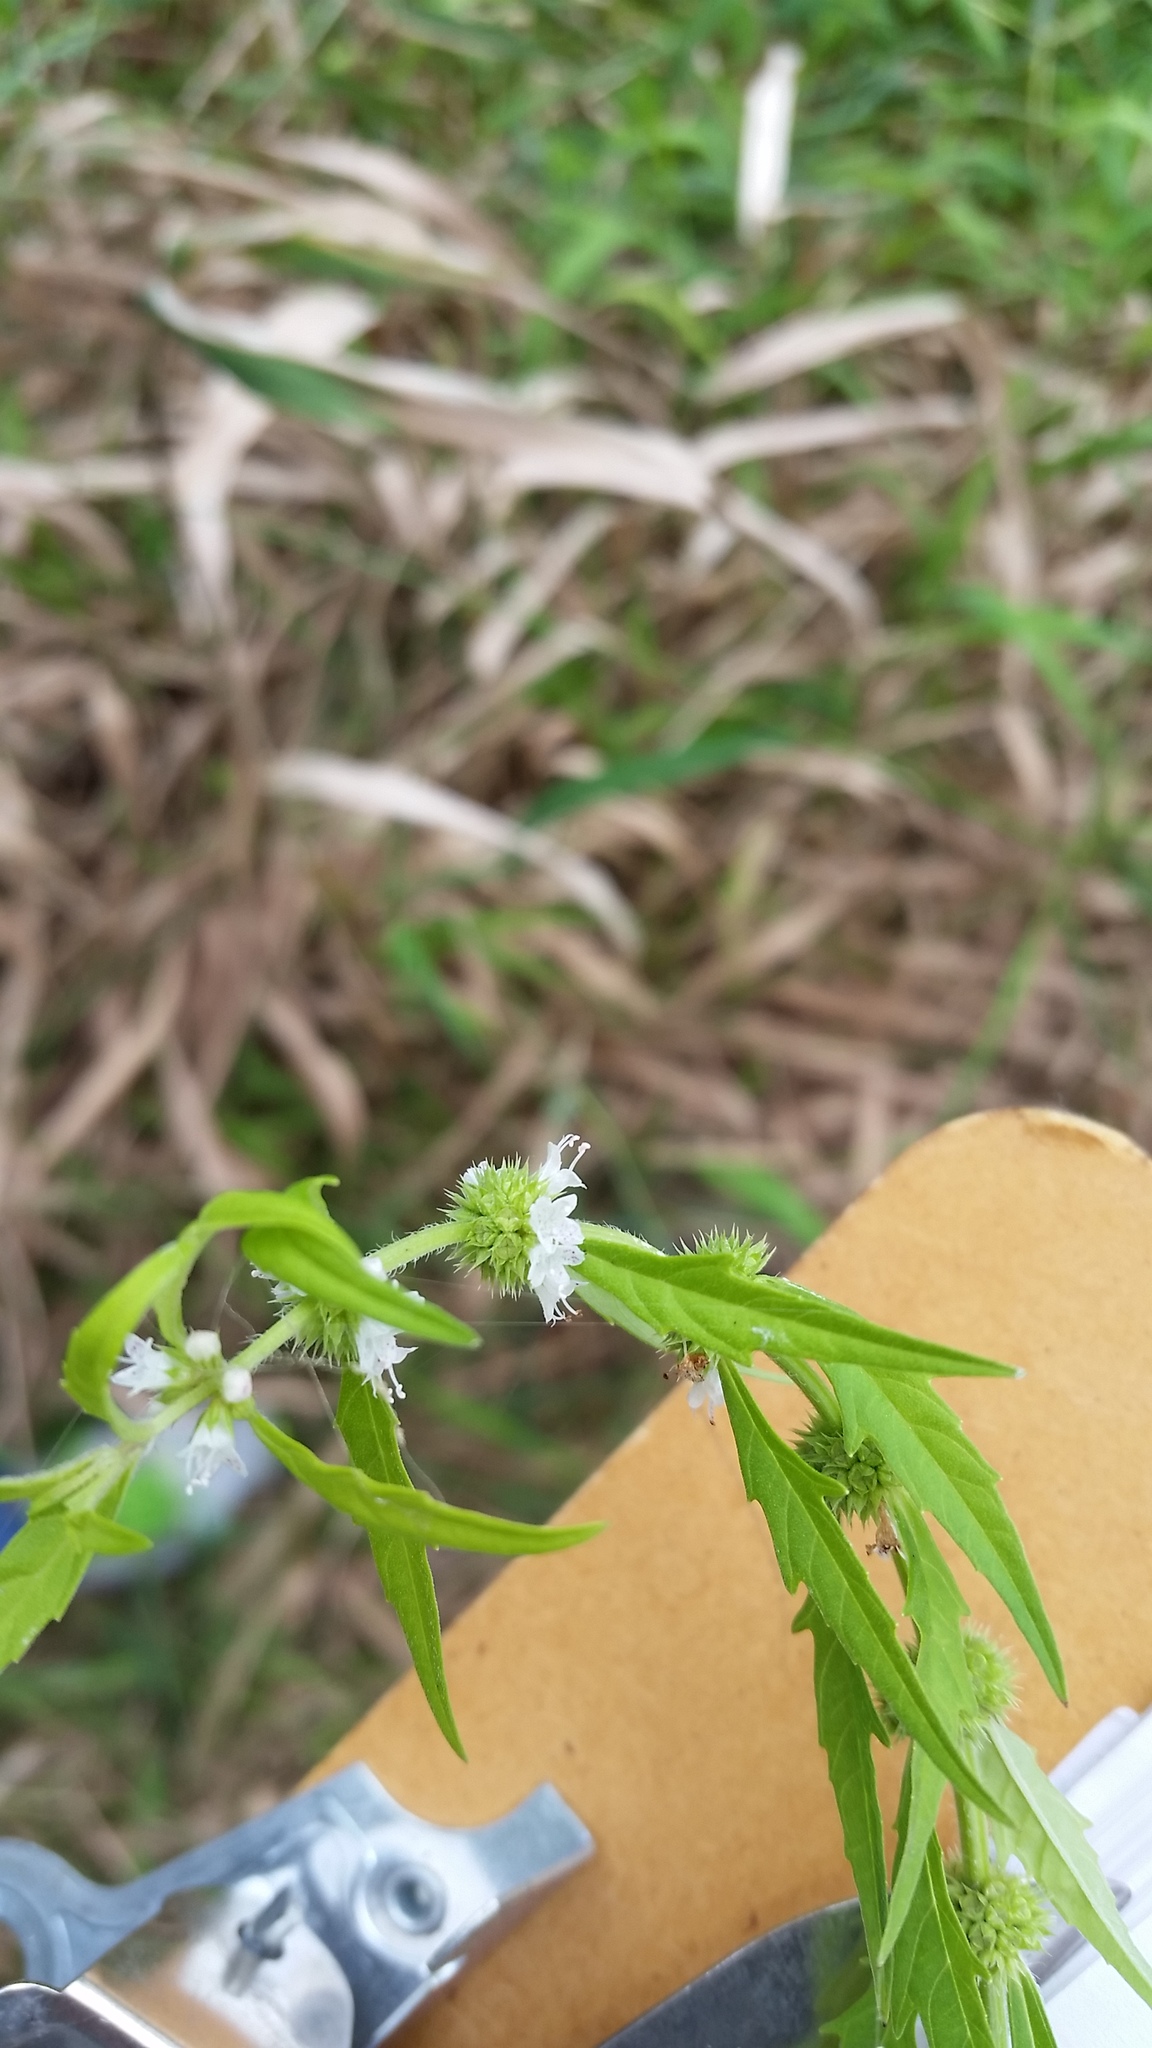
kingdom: Plantae
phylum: Tracheophyta
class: Magnoliopsida
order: Lamiales
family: Lamiaceae
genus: Lycopus
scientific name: Lycopus americanus
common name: American bugleweed
